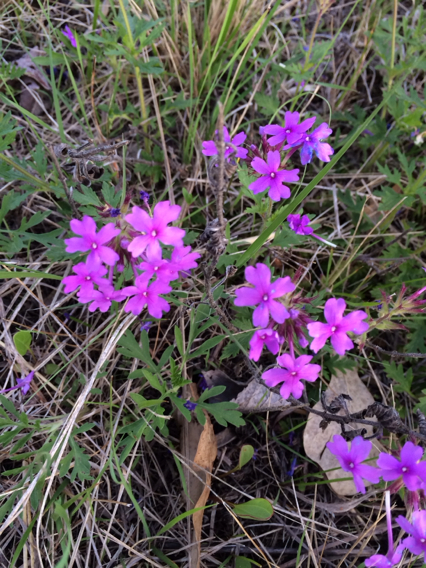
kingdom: Plantae
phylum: Tracheophyta
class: Magnoliopsida
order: Lamiales
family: Verbenaceae
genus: Verbena
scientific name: Verbena bipinnatifida
